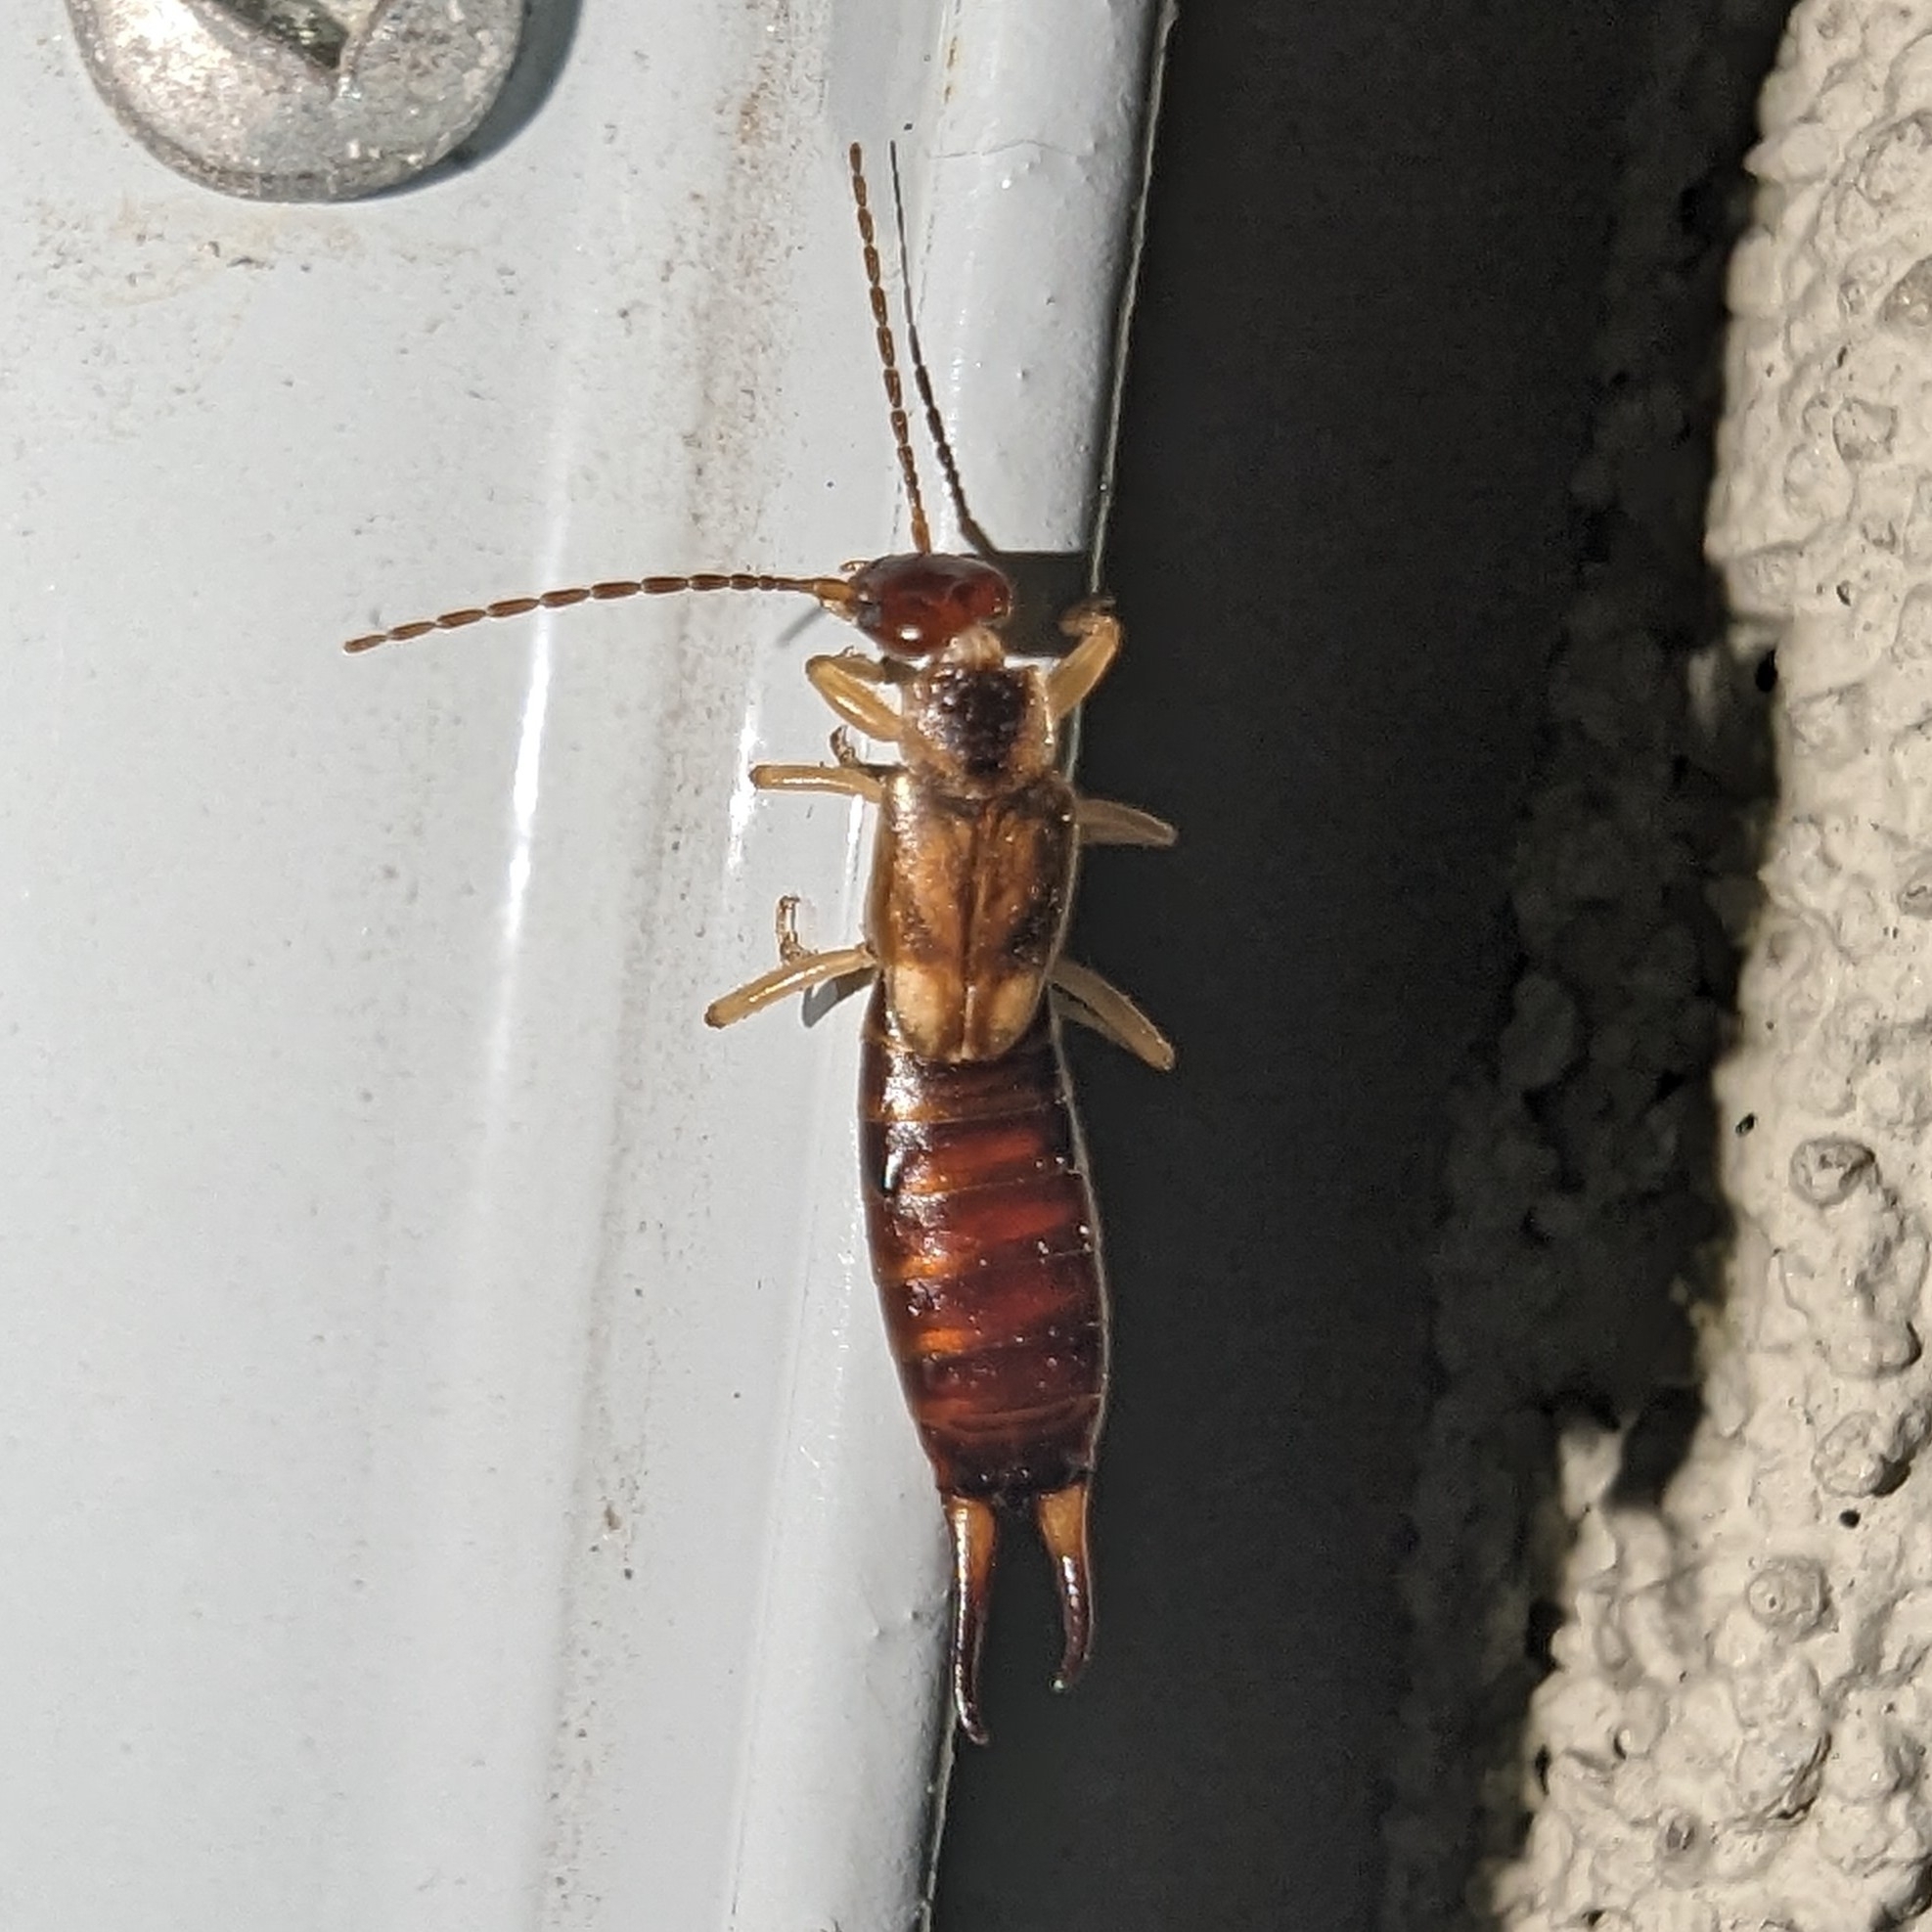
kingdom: Animalia
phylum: Arthropoda
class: Insecta
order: Dermaptera
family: Forficulidae
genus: Forficula
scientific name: Forficula dentata
